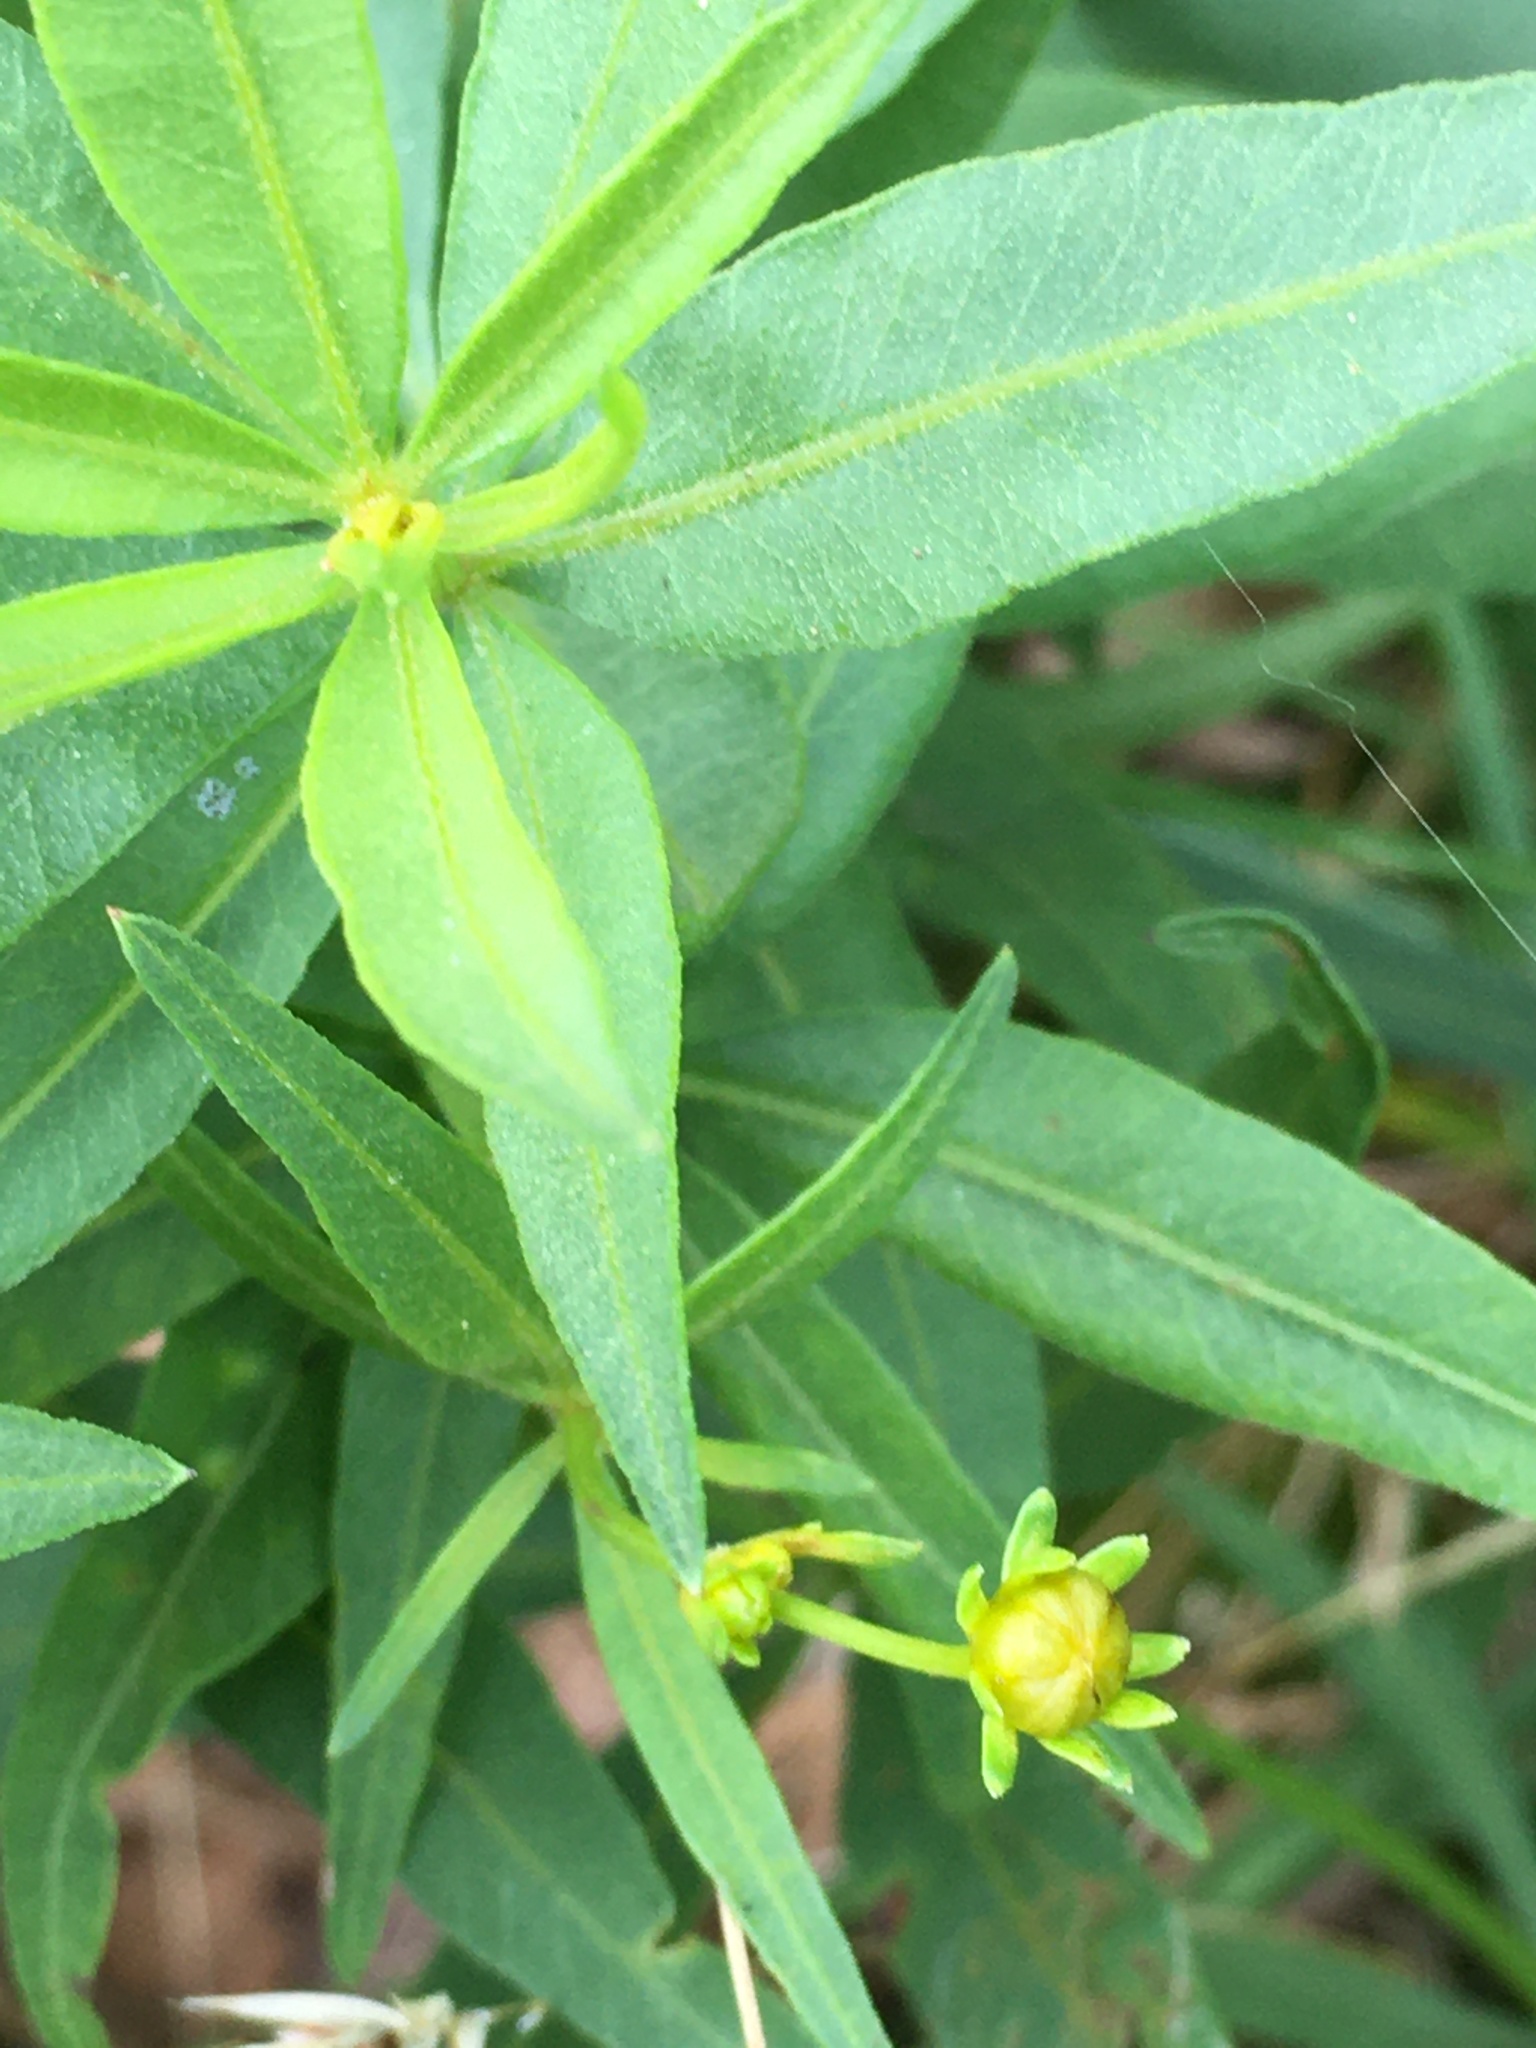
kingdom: Plantae
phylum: Tracheophyta
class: Magnoliopsida
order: Asterales
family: Asteraceae
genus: Coreopsis
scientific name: Coreopsis major
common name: Forest tickseed
